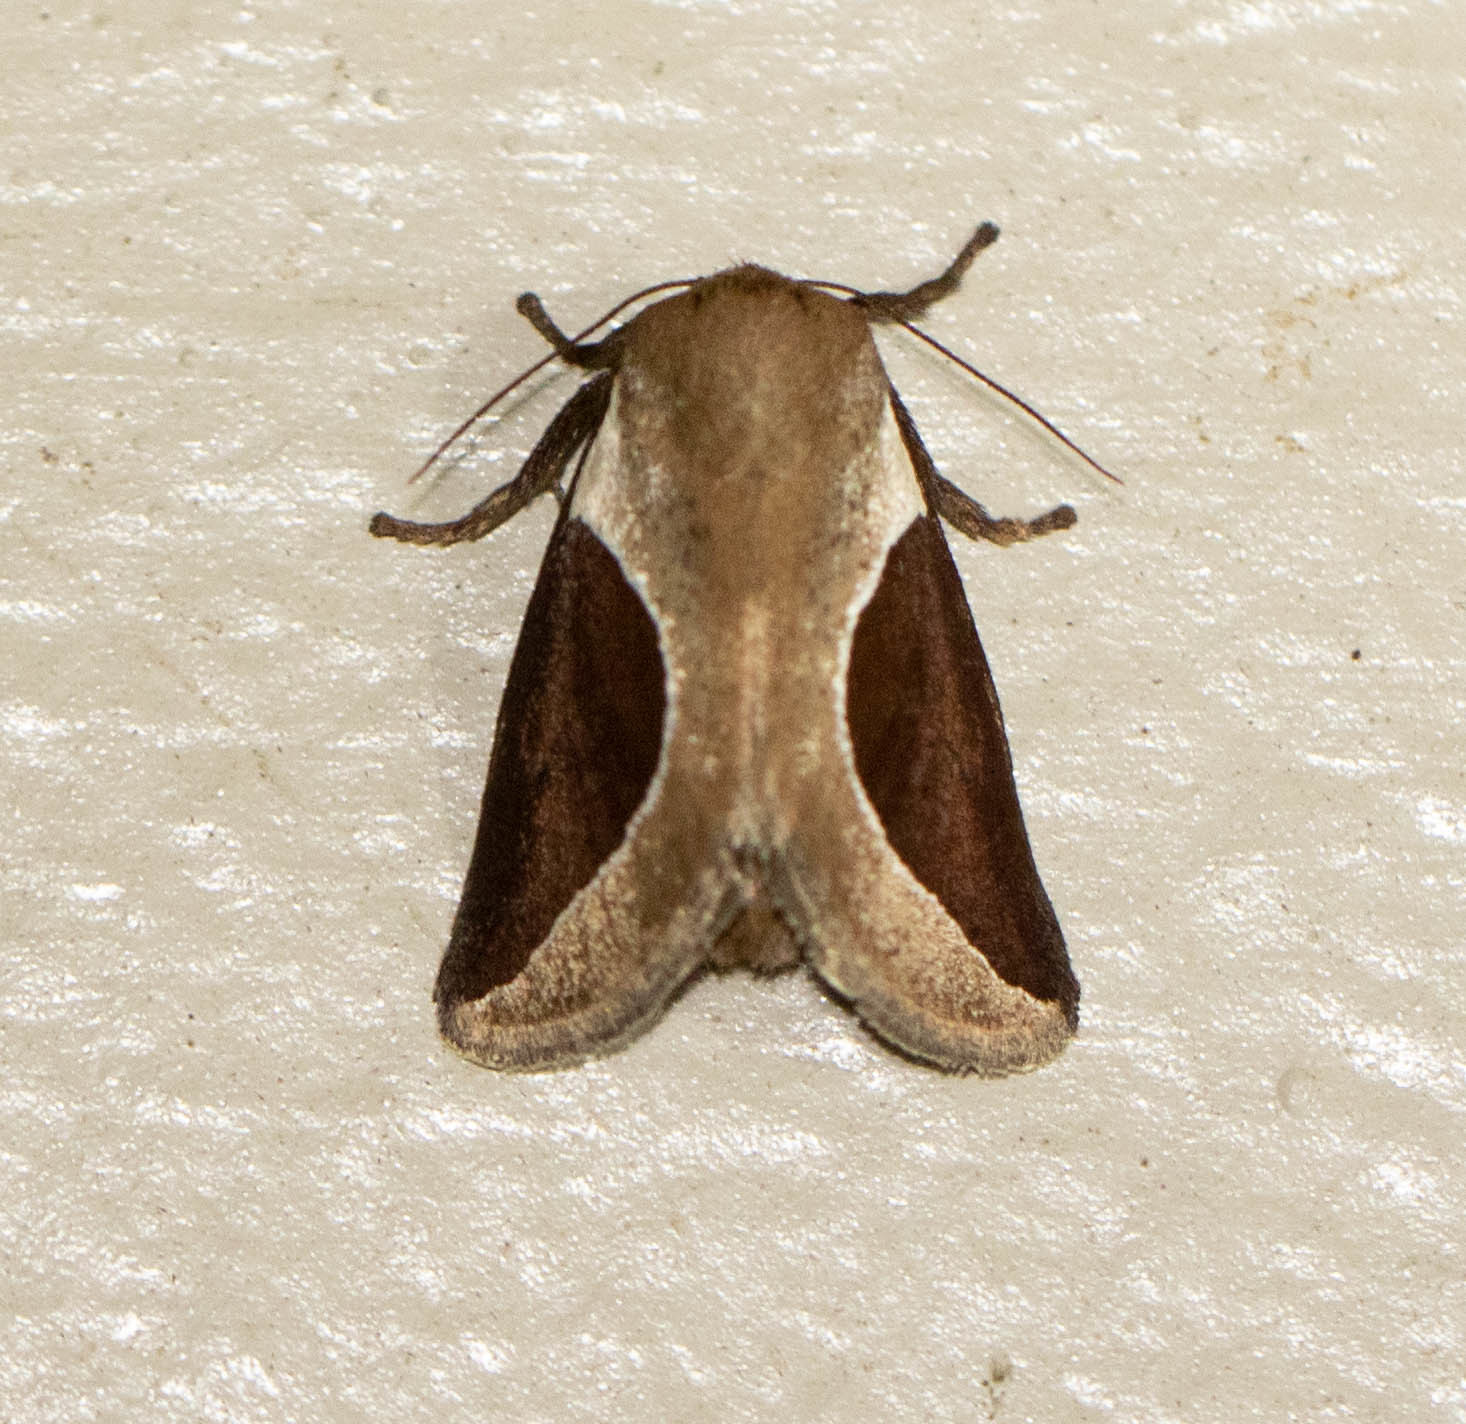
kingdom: Animalia
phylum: Arthropoda
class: Insecta
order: Lepidoptera
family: Limacodidae
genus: Prolimacodes
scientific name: Prolimacodes badia
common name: Skiff moth
